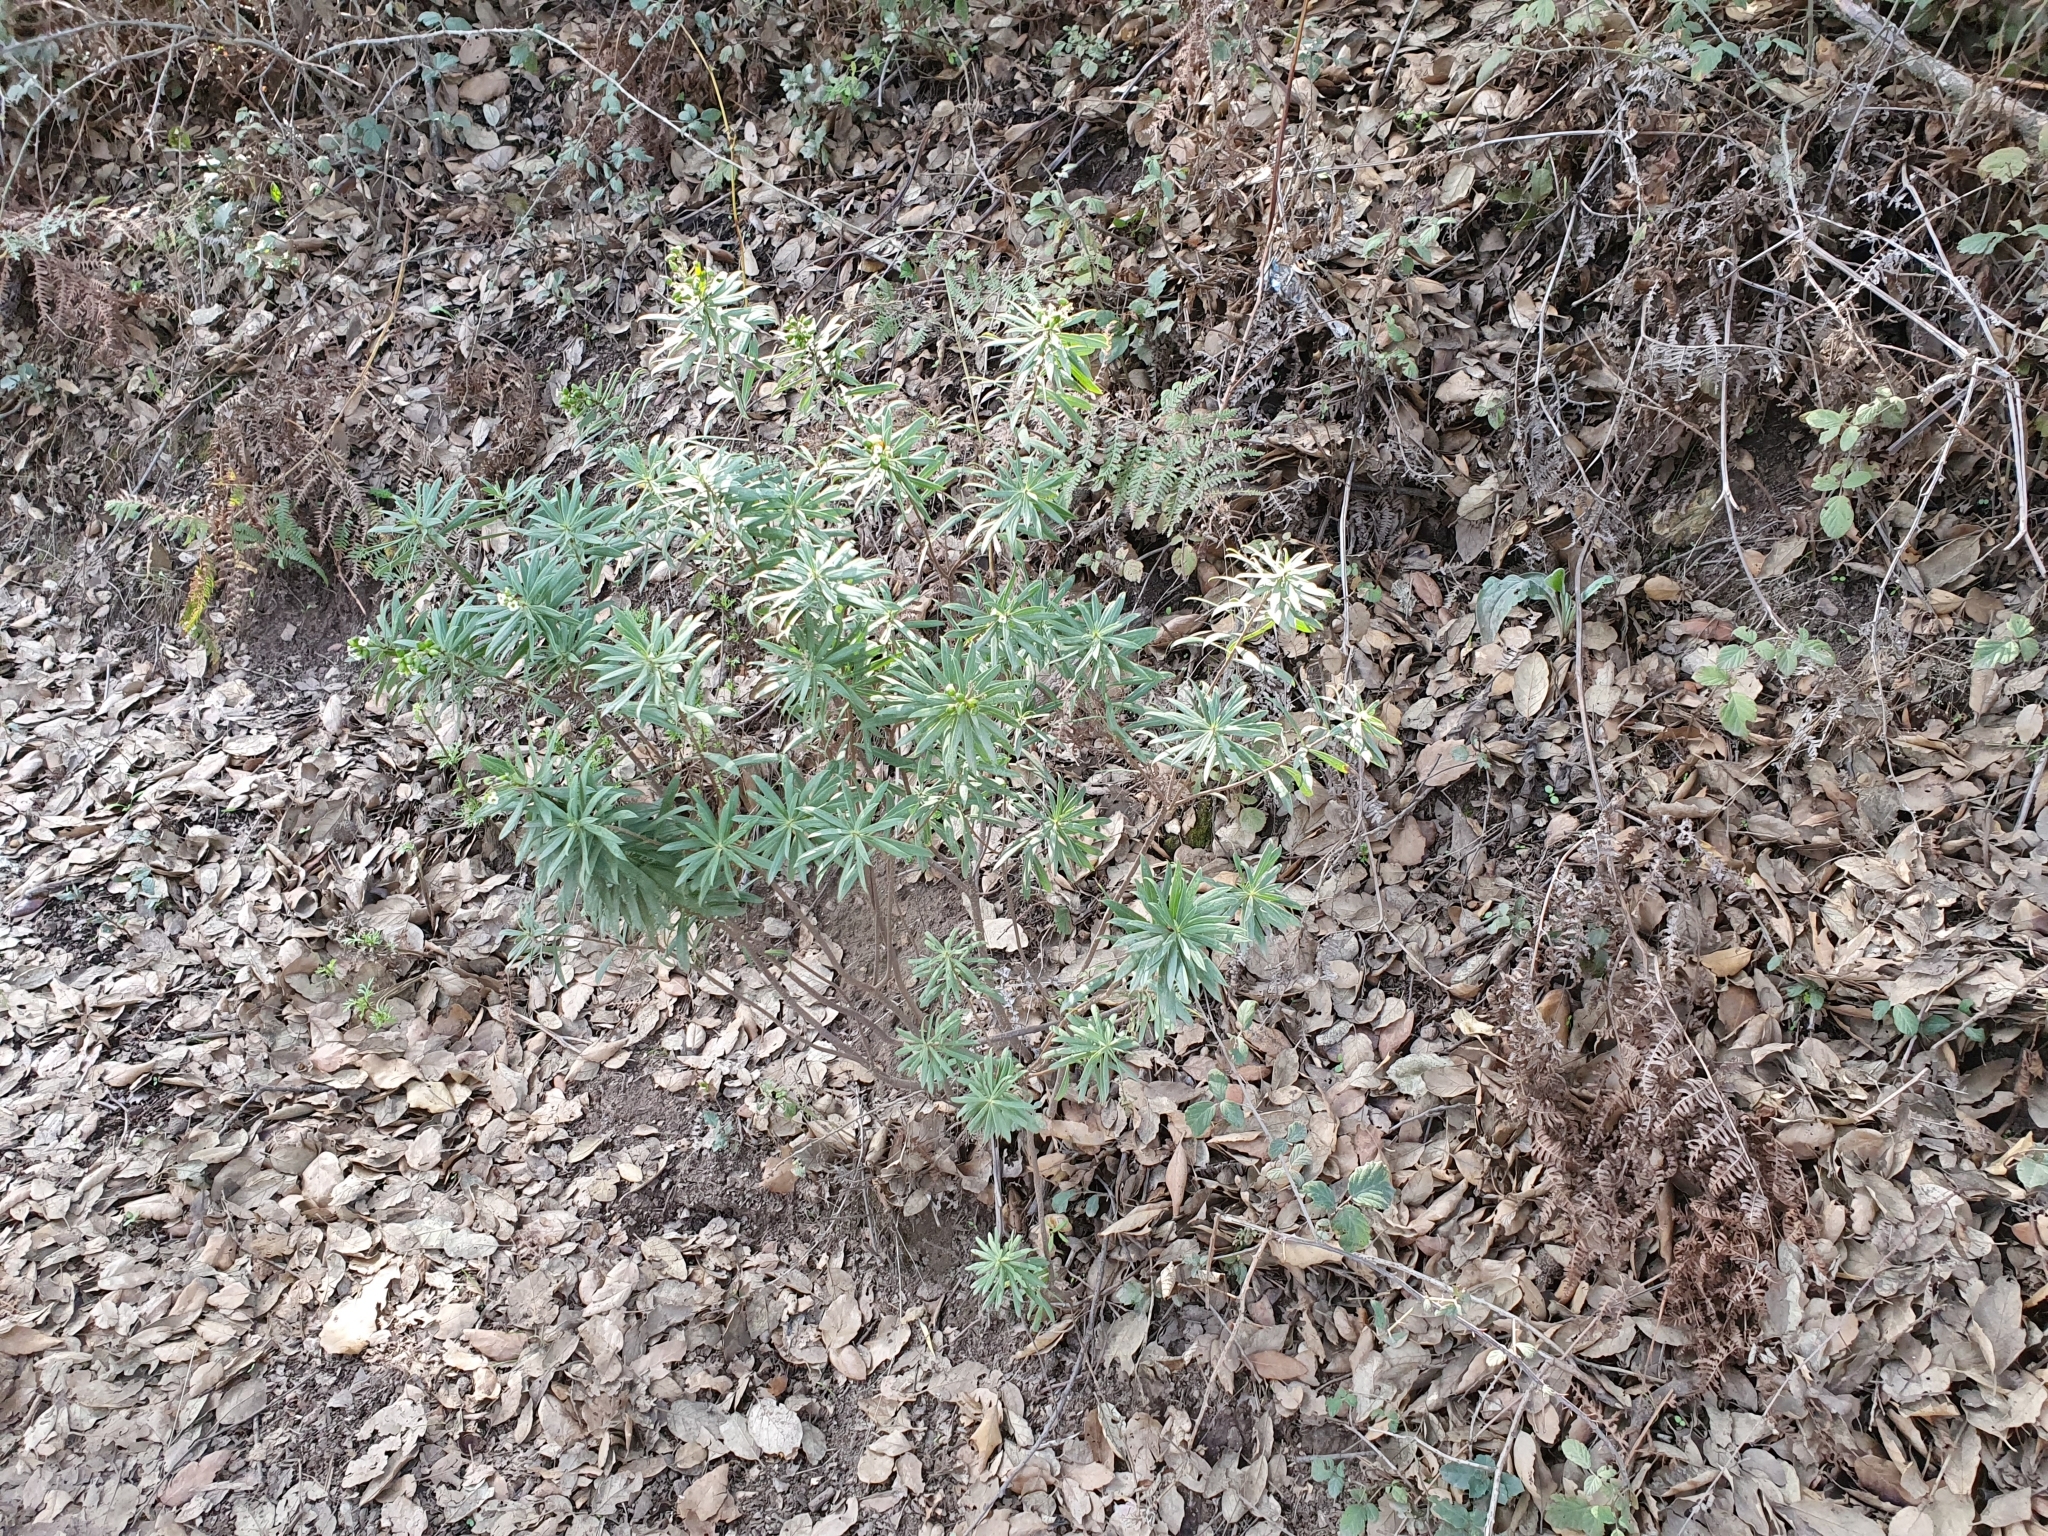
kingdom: Plantae
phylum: Tracheophyta
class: Magnoliopsida
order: Malvales
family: Thymelaeaceae
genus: Daphne
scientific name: Daphne gnidium
